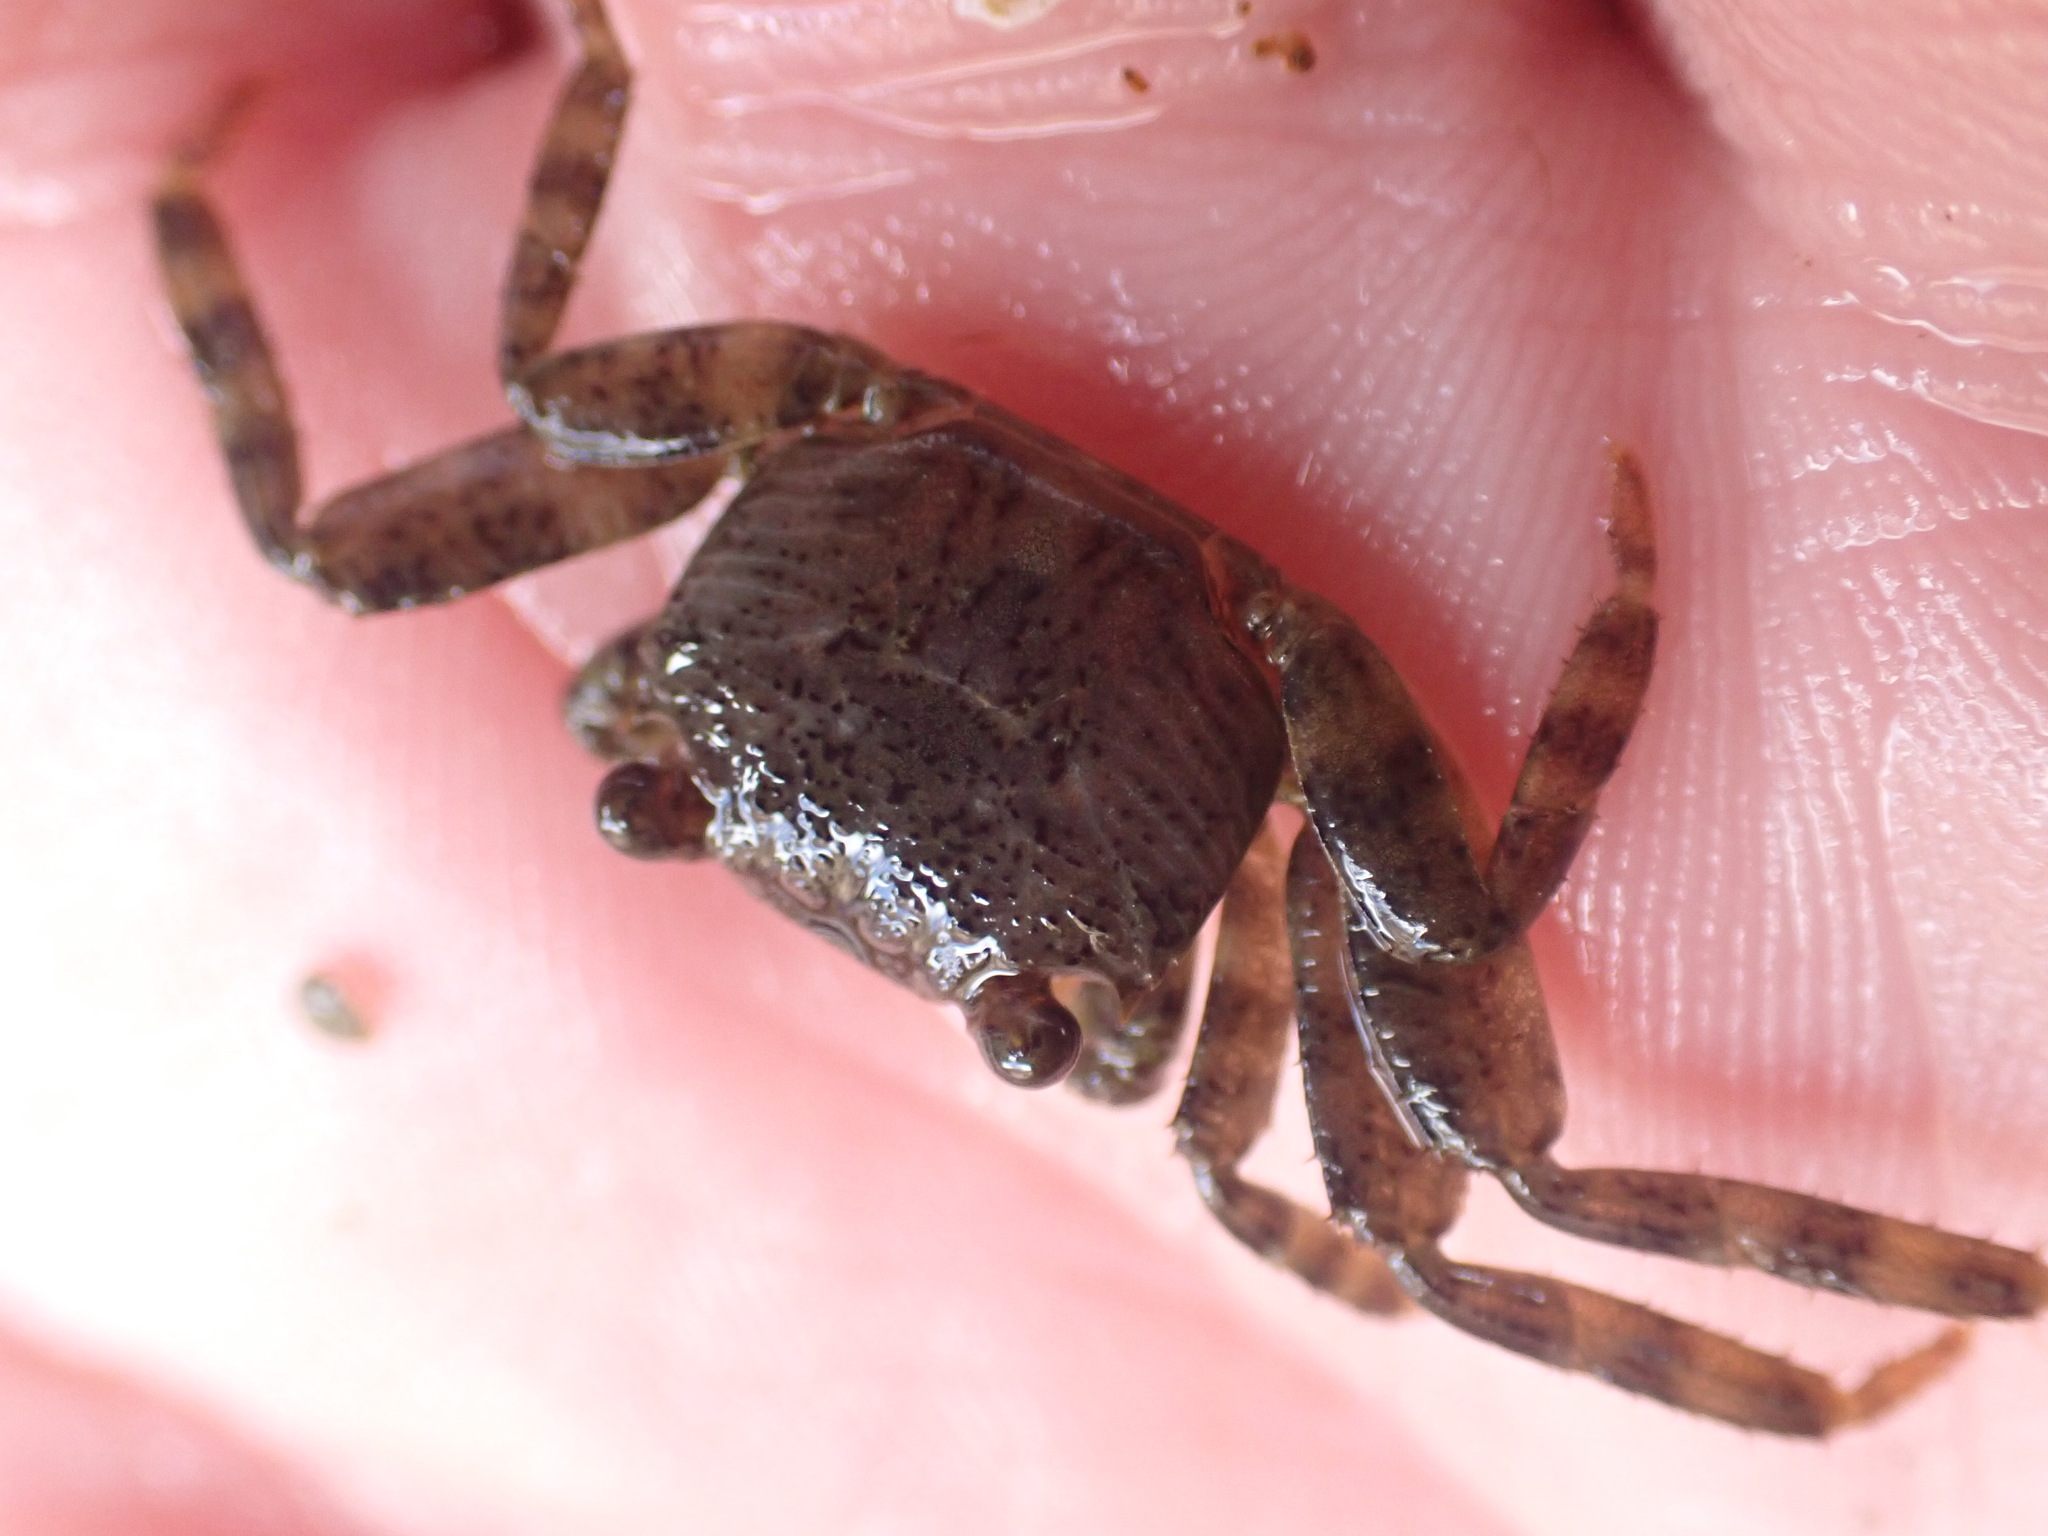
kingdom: Animalia
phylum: Arthropoda
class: Malacostraca
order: Decapoda
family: Grapsidae
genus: Leptograpsus
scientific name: Leptograpsus variegatus
